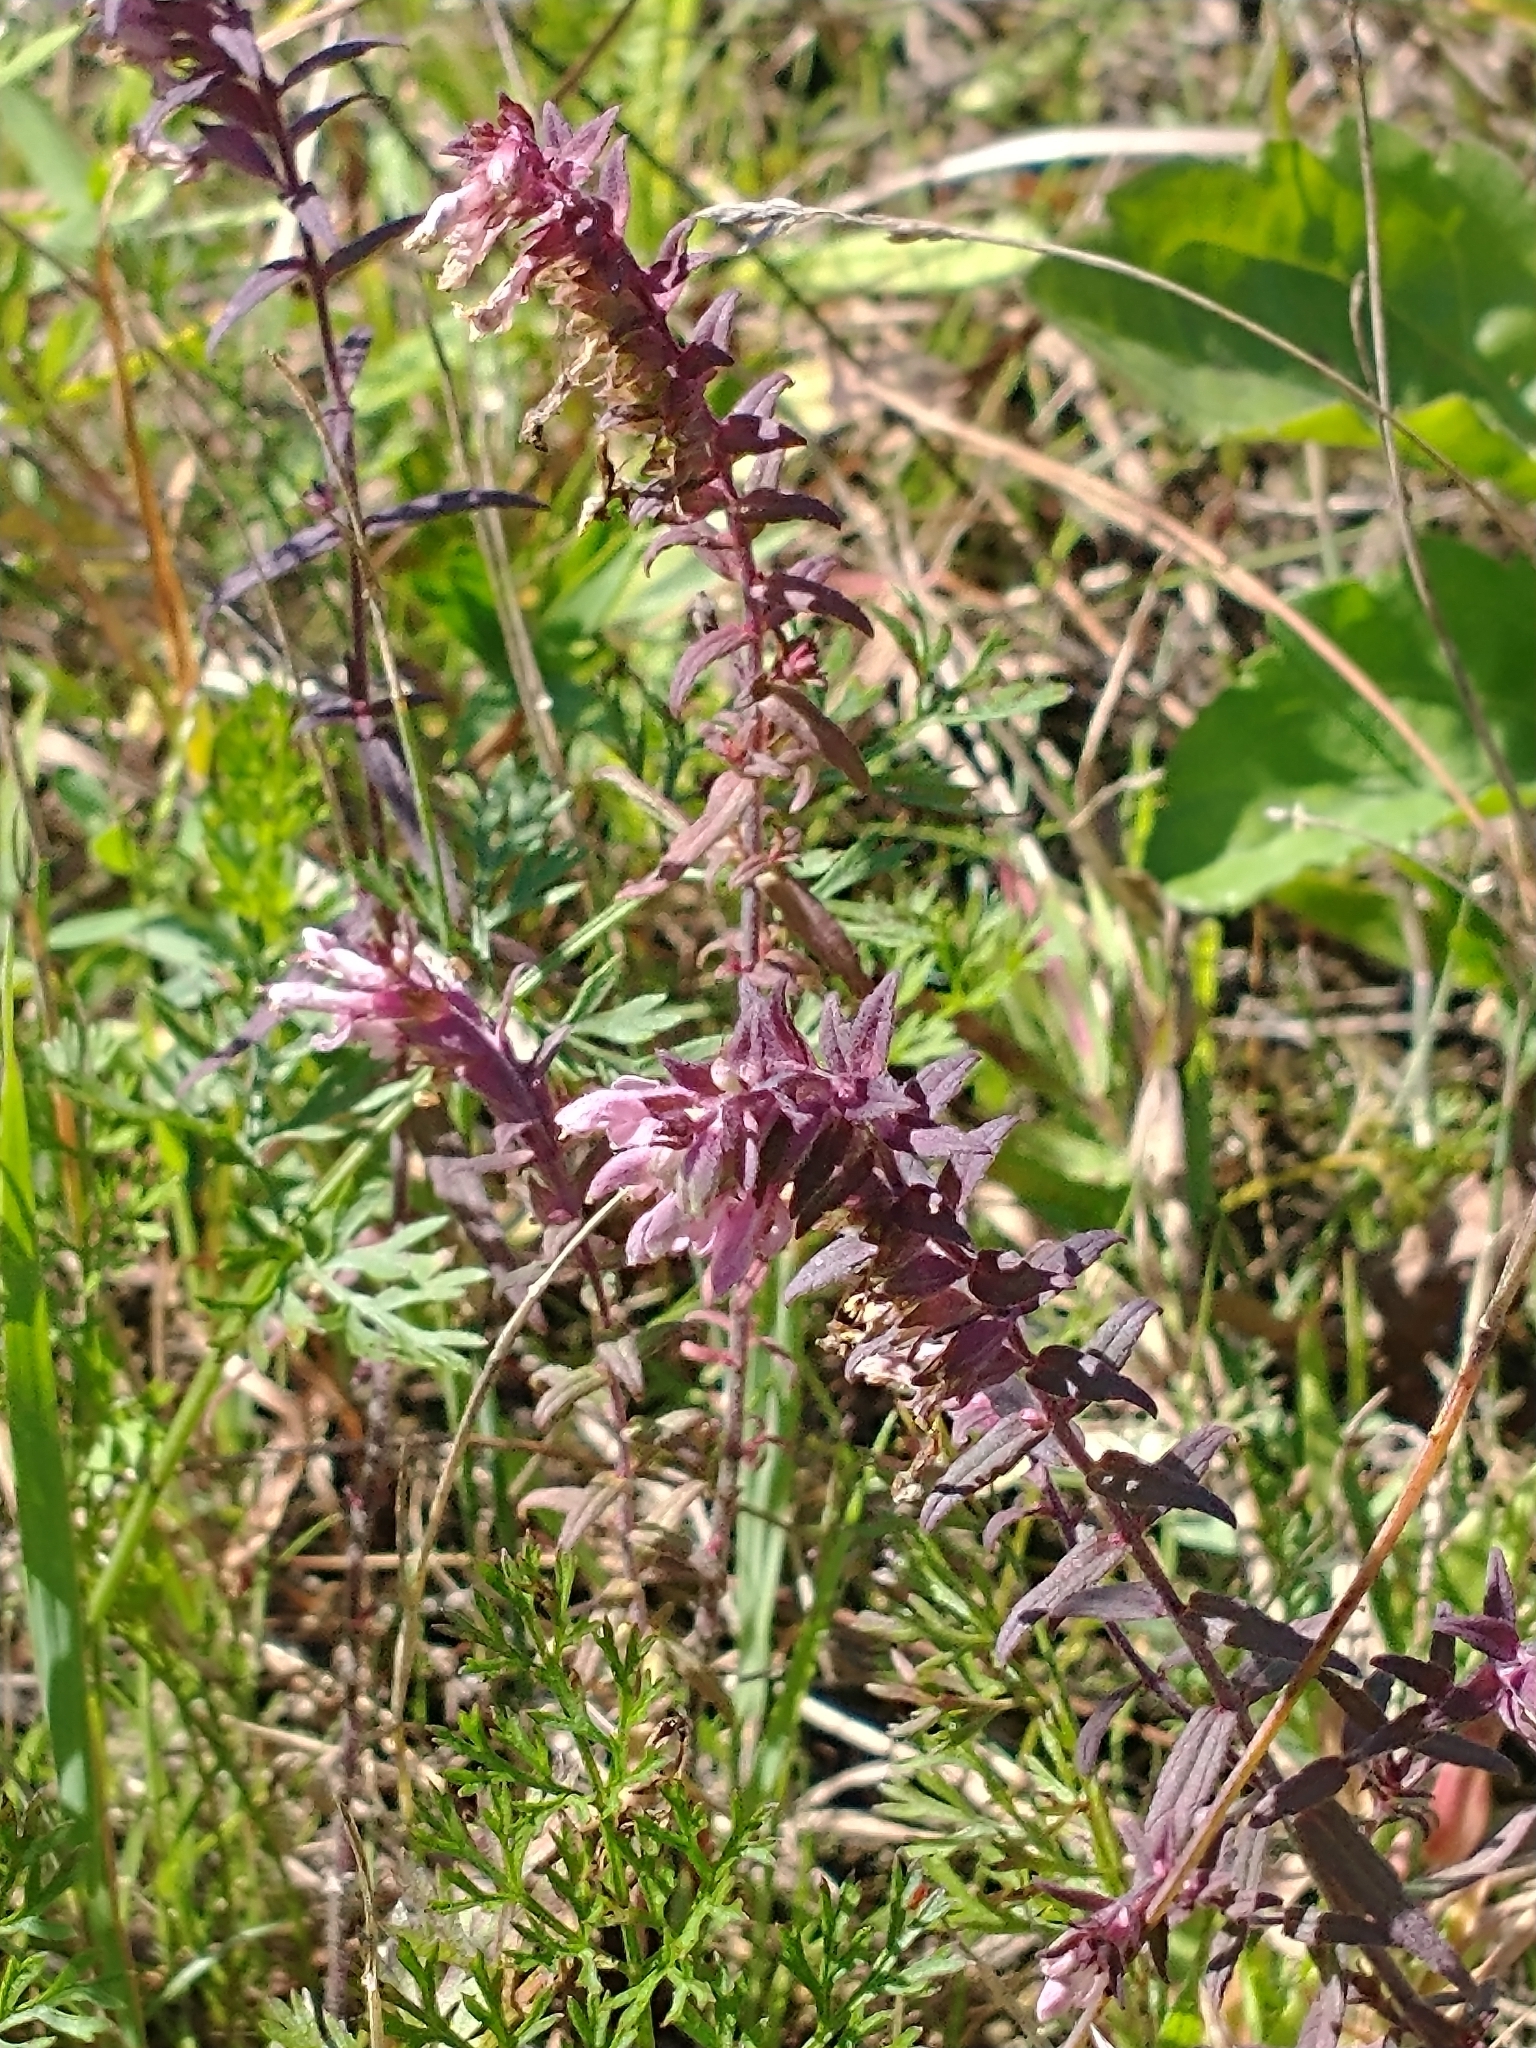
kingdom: Plantae
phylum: Tracheophyta
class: Magnoliopsida
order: Lamiales
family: Orobanchaceae
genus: Odontites
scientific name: Odontites vulgaris
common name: Broomrape
